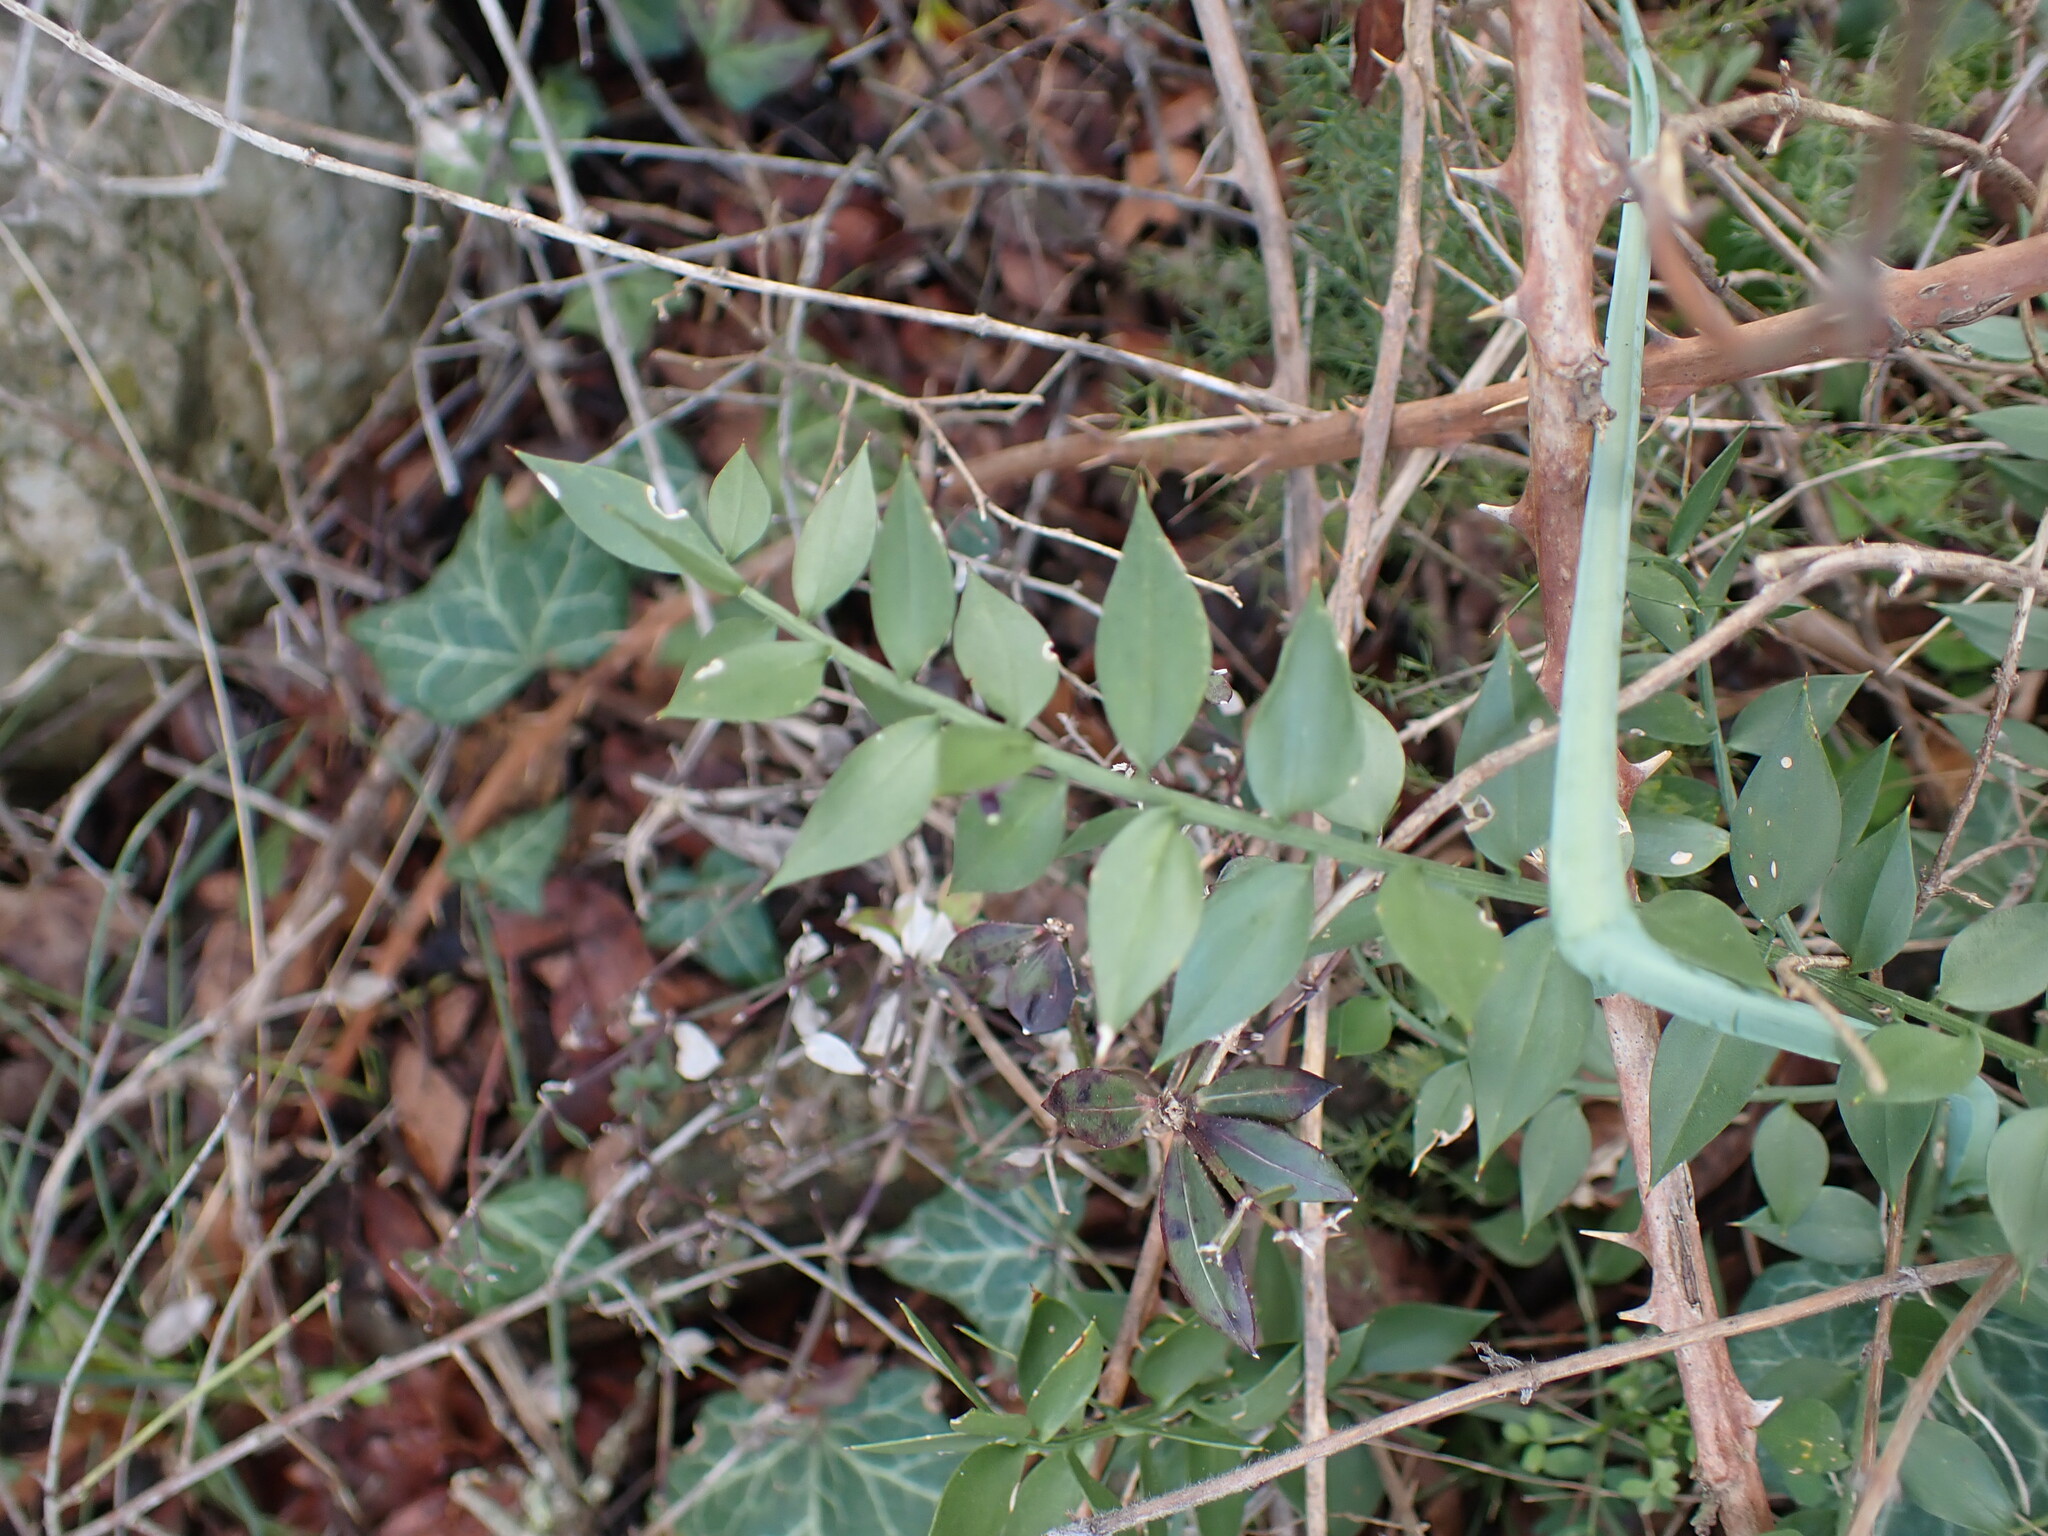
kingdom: Plantae
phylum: Tracheophyta
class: Liliopsida
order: Asparagales
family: Asparagaceae
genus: Ruscus
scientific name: Ruscus aculeatus
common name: Butcher's-broom
